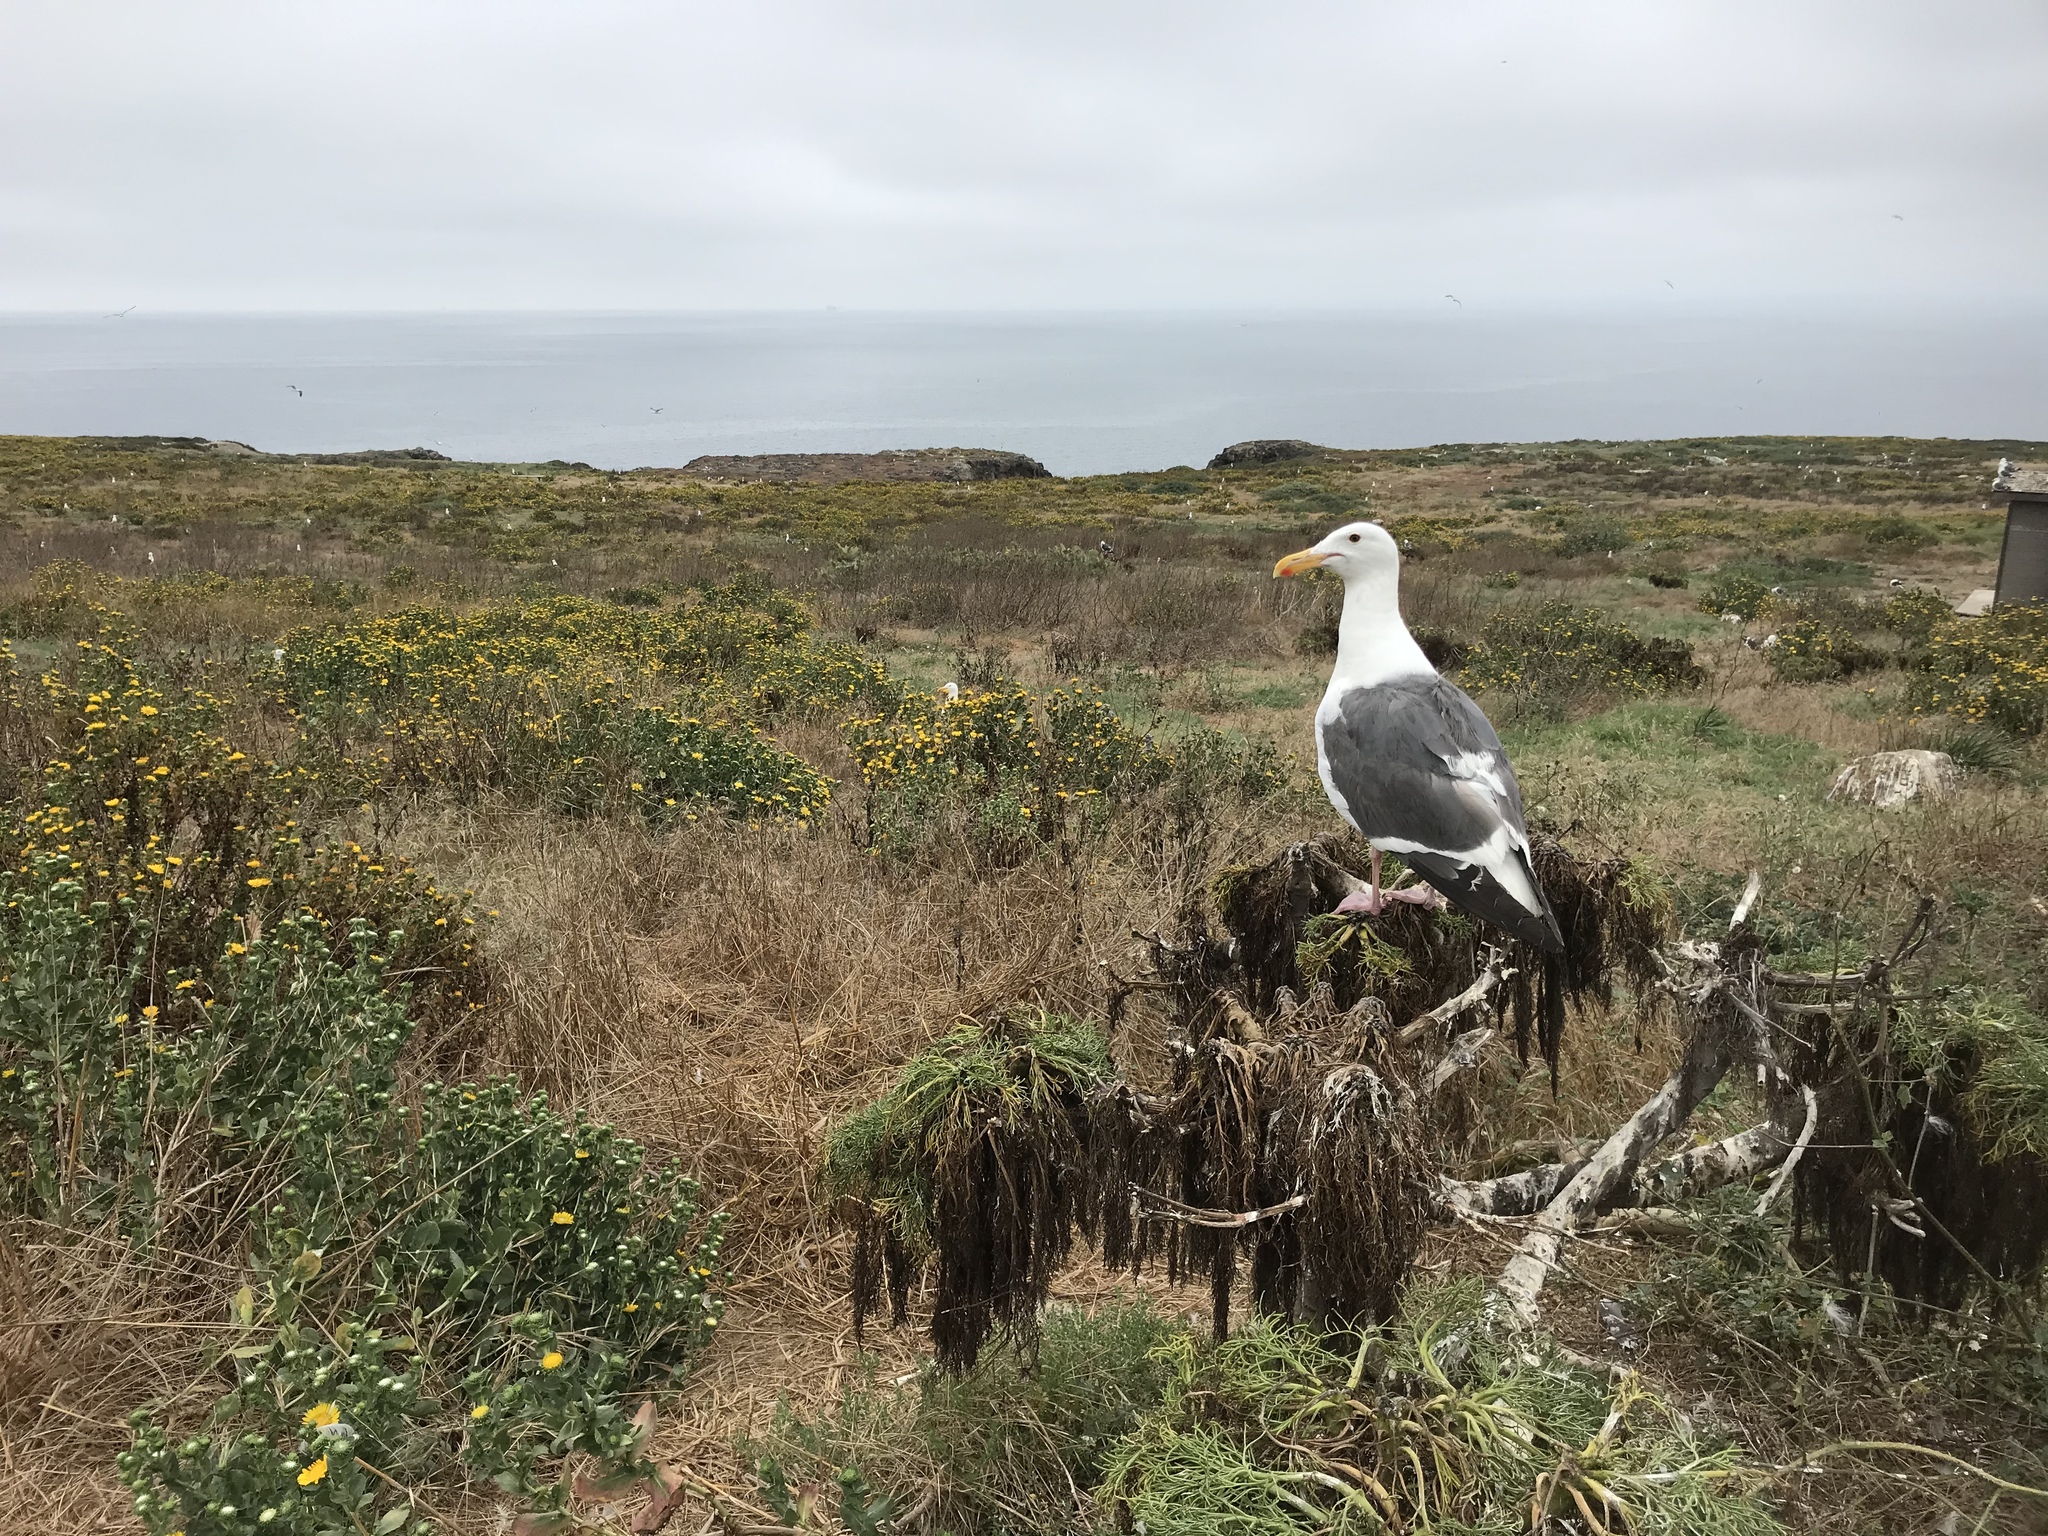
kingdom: Animalia
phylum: Chordata
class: Aves
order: Charadriiformes
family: Laridae
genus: Larus
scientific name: Larus occidentalis
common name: Western gull
